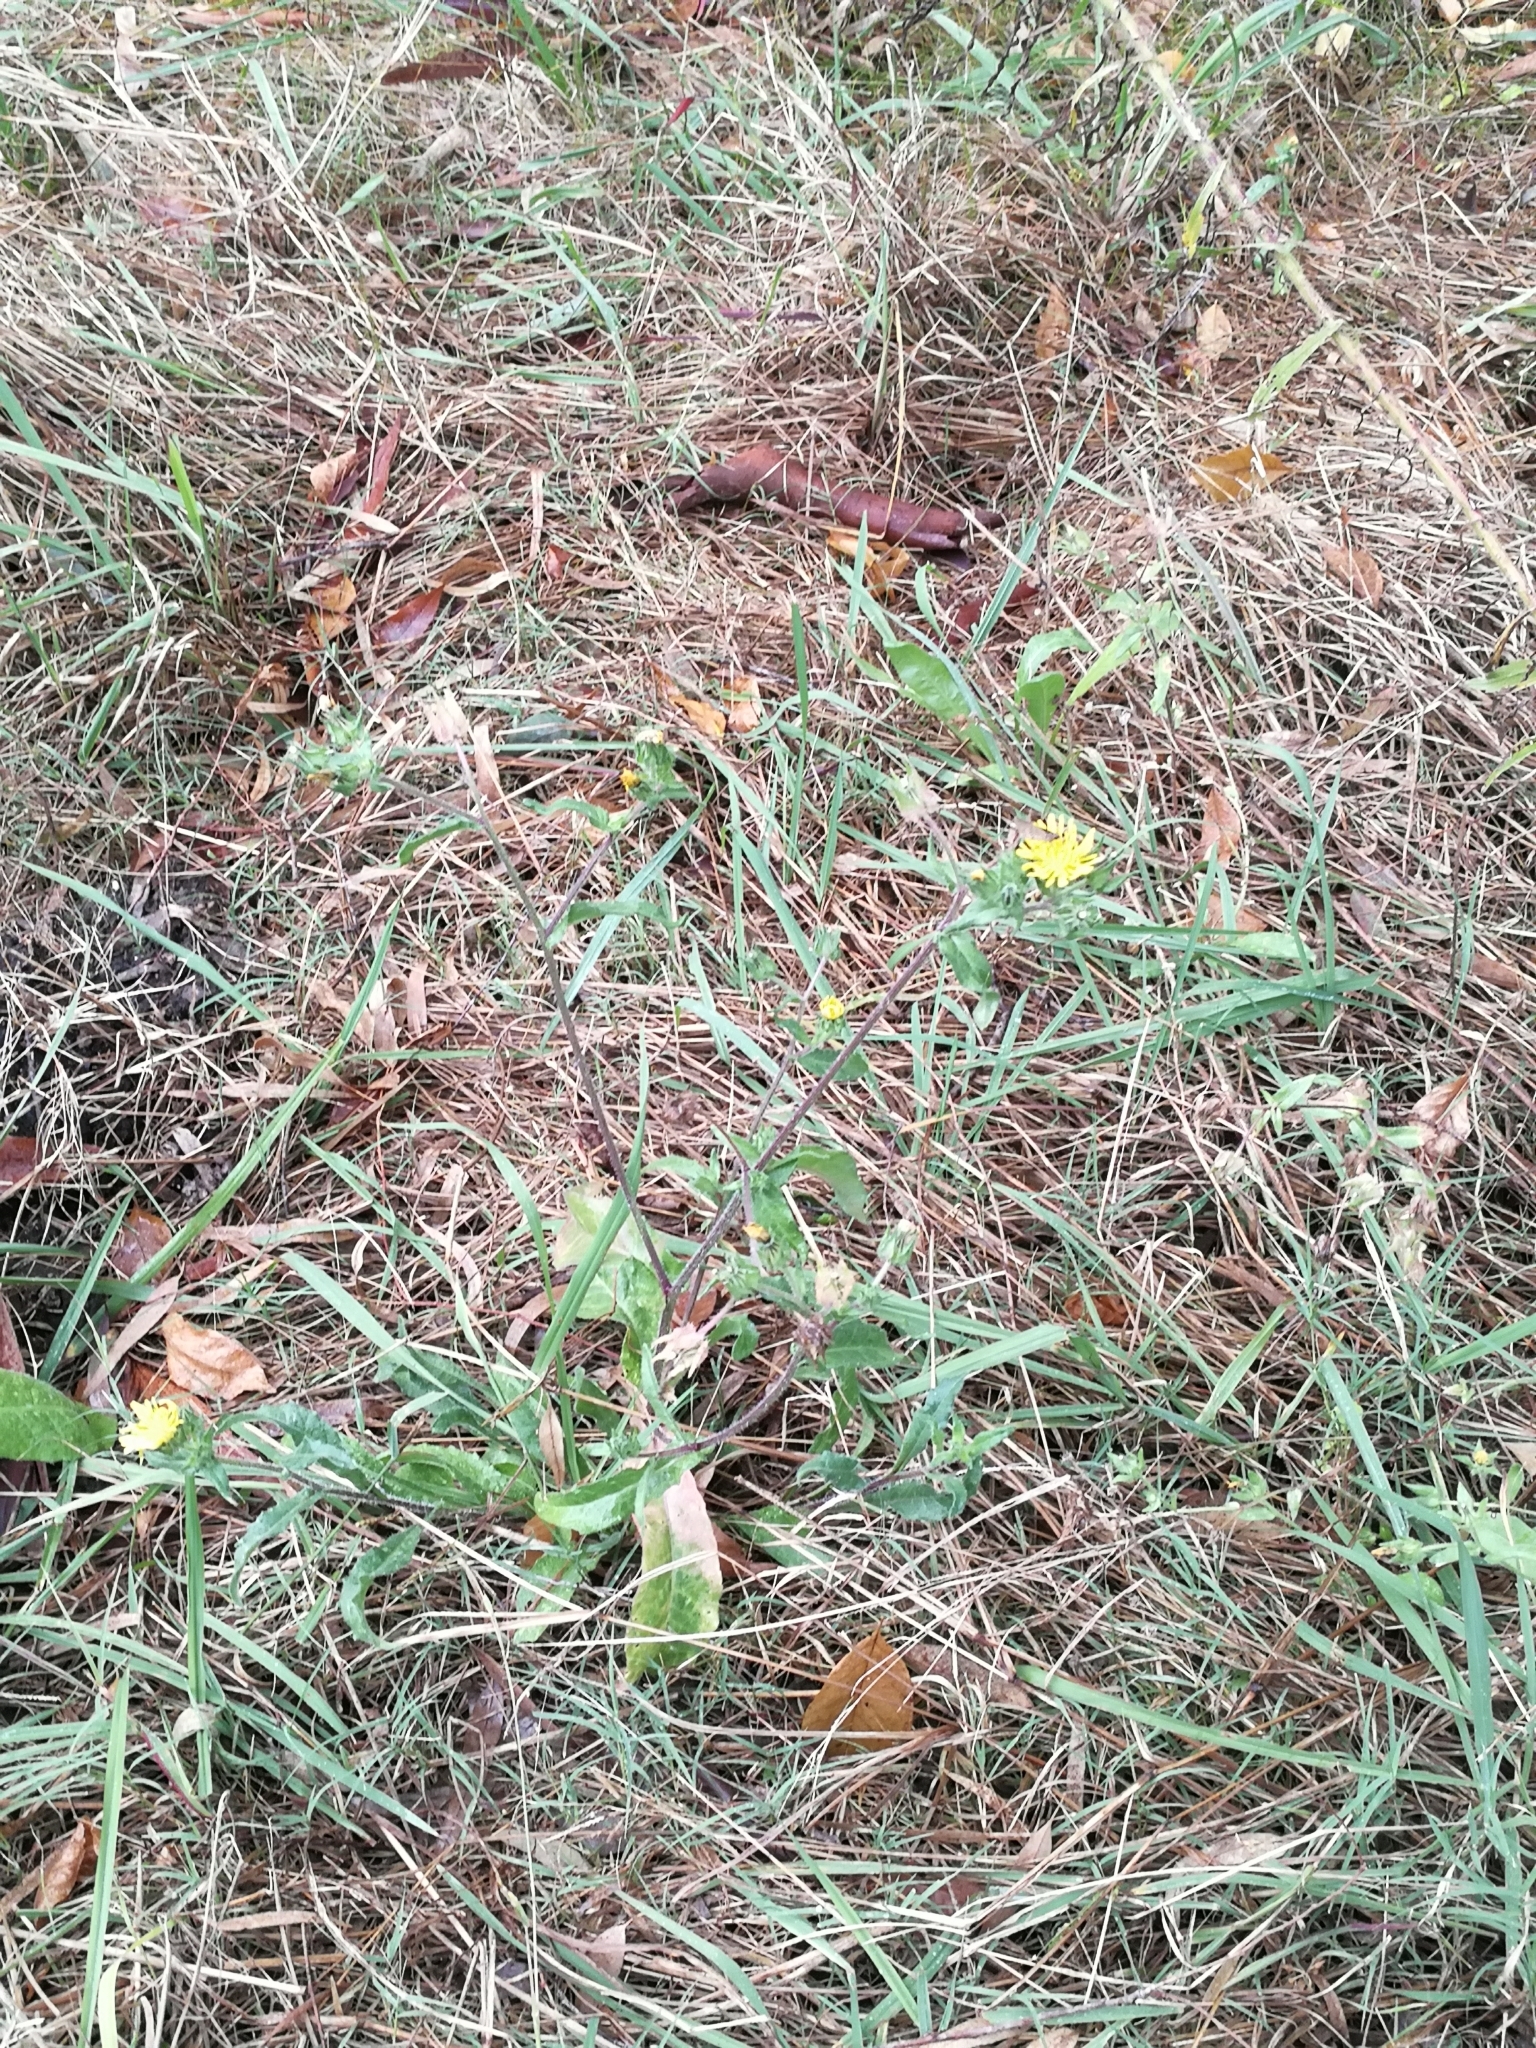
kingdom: Plantae
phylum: Tracheophyta
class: Magnoliopsida
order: Asterales
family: Asteraceae
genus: Helminthotheca
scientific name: Helminthotheca echioides
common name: Ox-tongue
